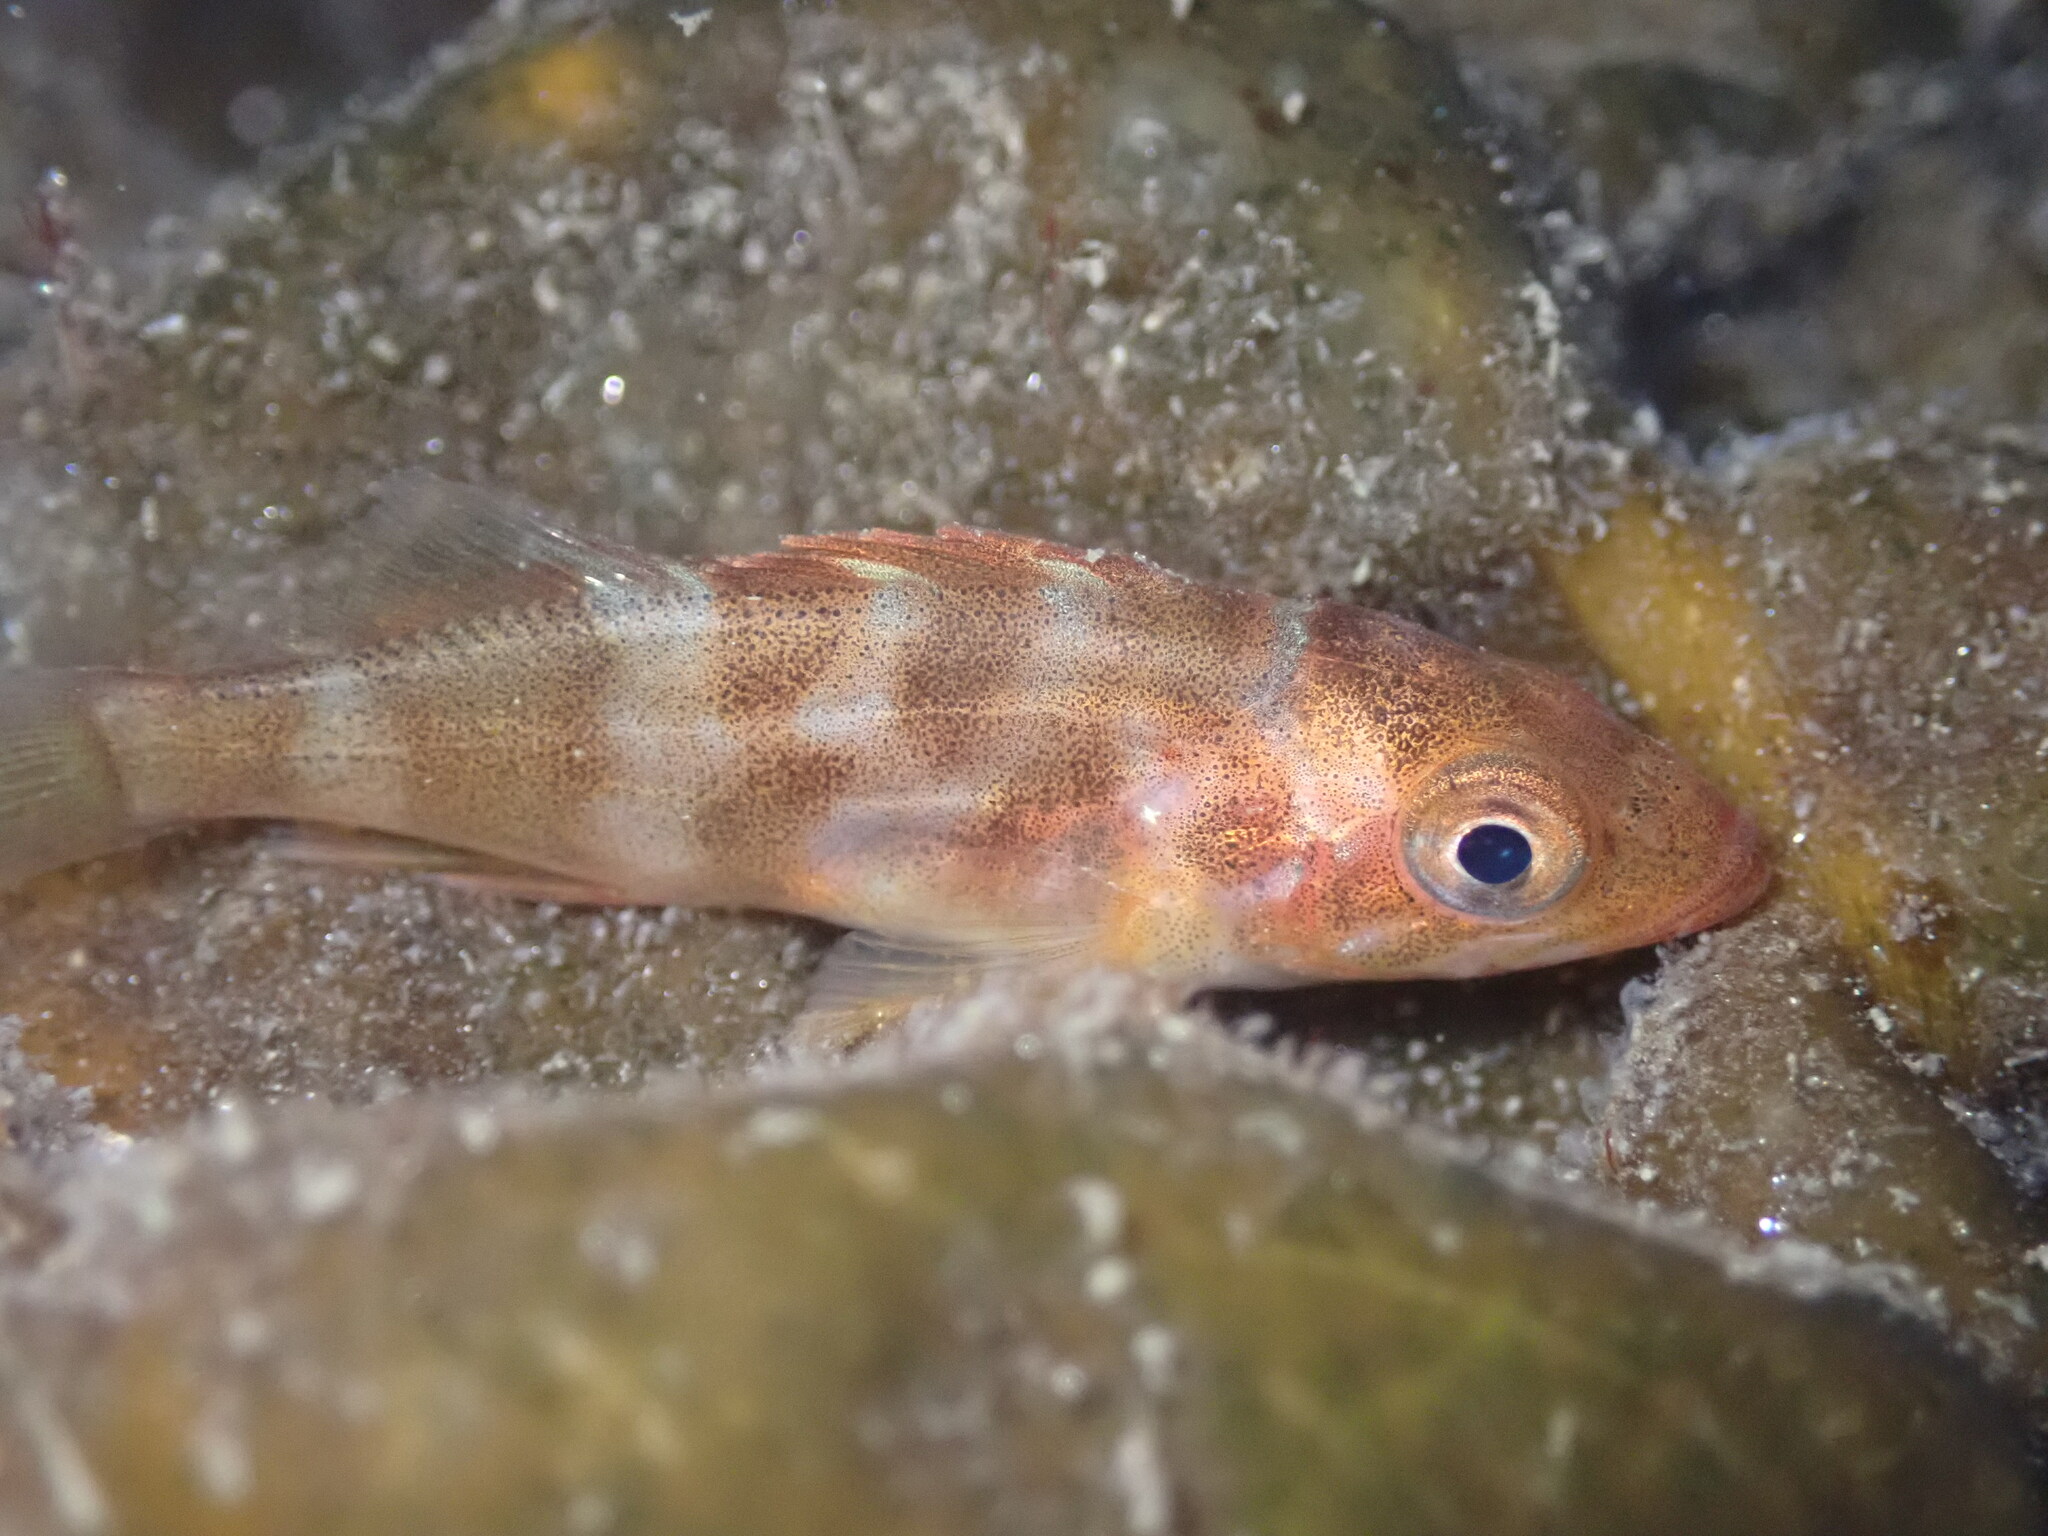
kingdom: Animalia
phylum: Chordata
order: Scorpaeniformes
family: Sebastidae
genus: Sebastes
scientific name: Sebastes carnatus
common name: Gopher rockfish
